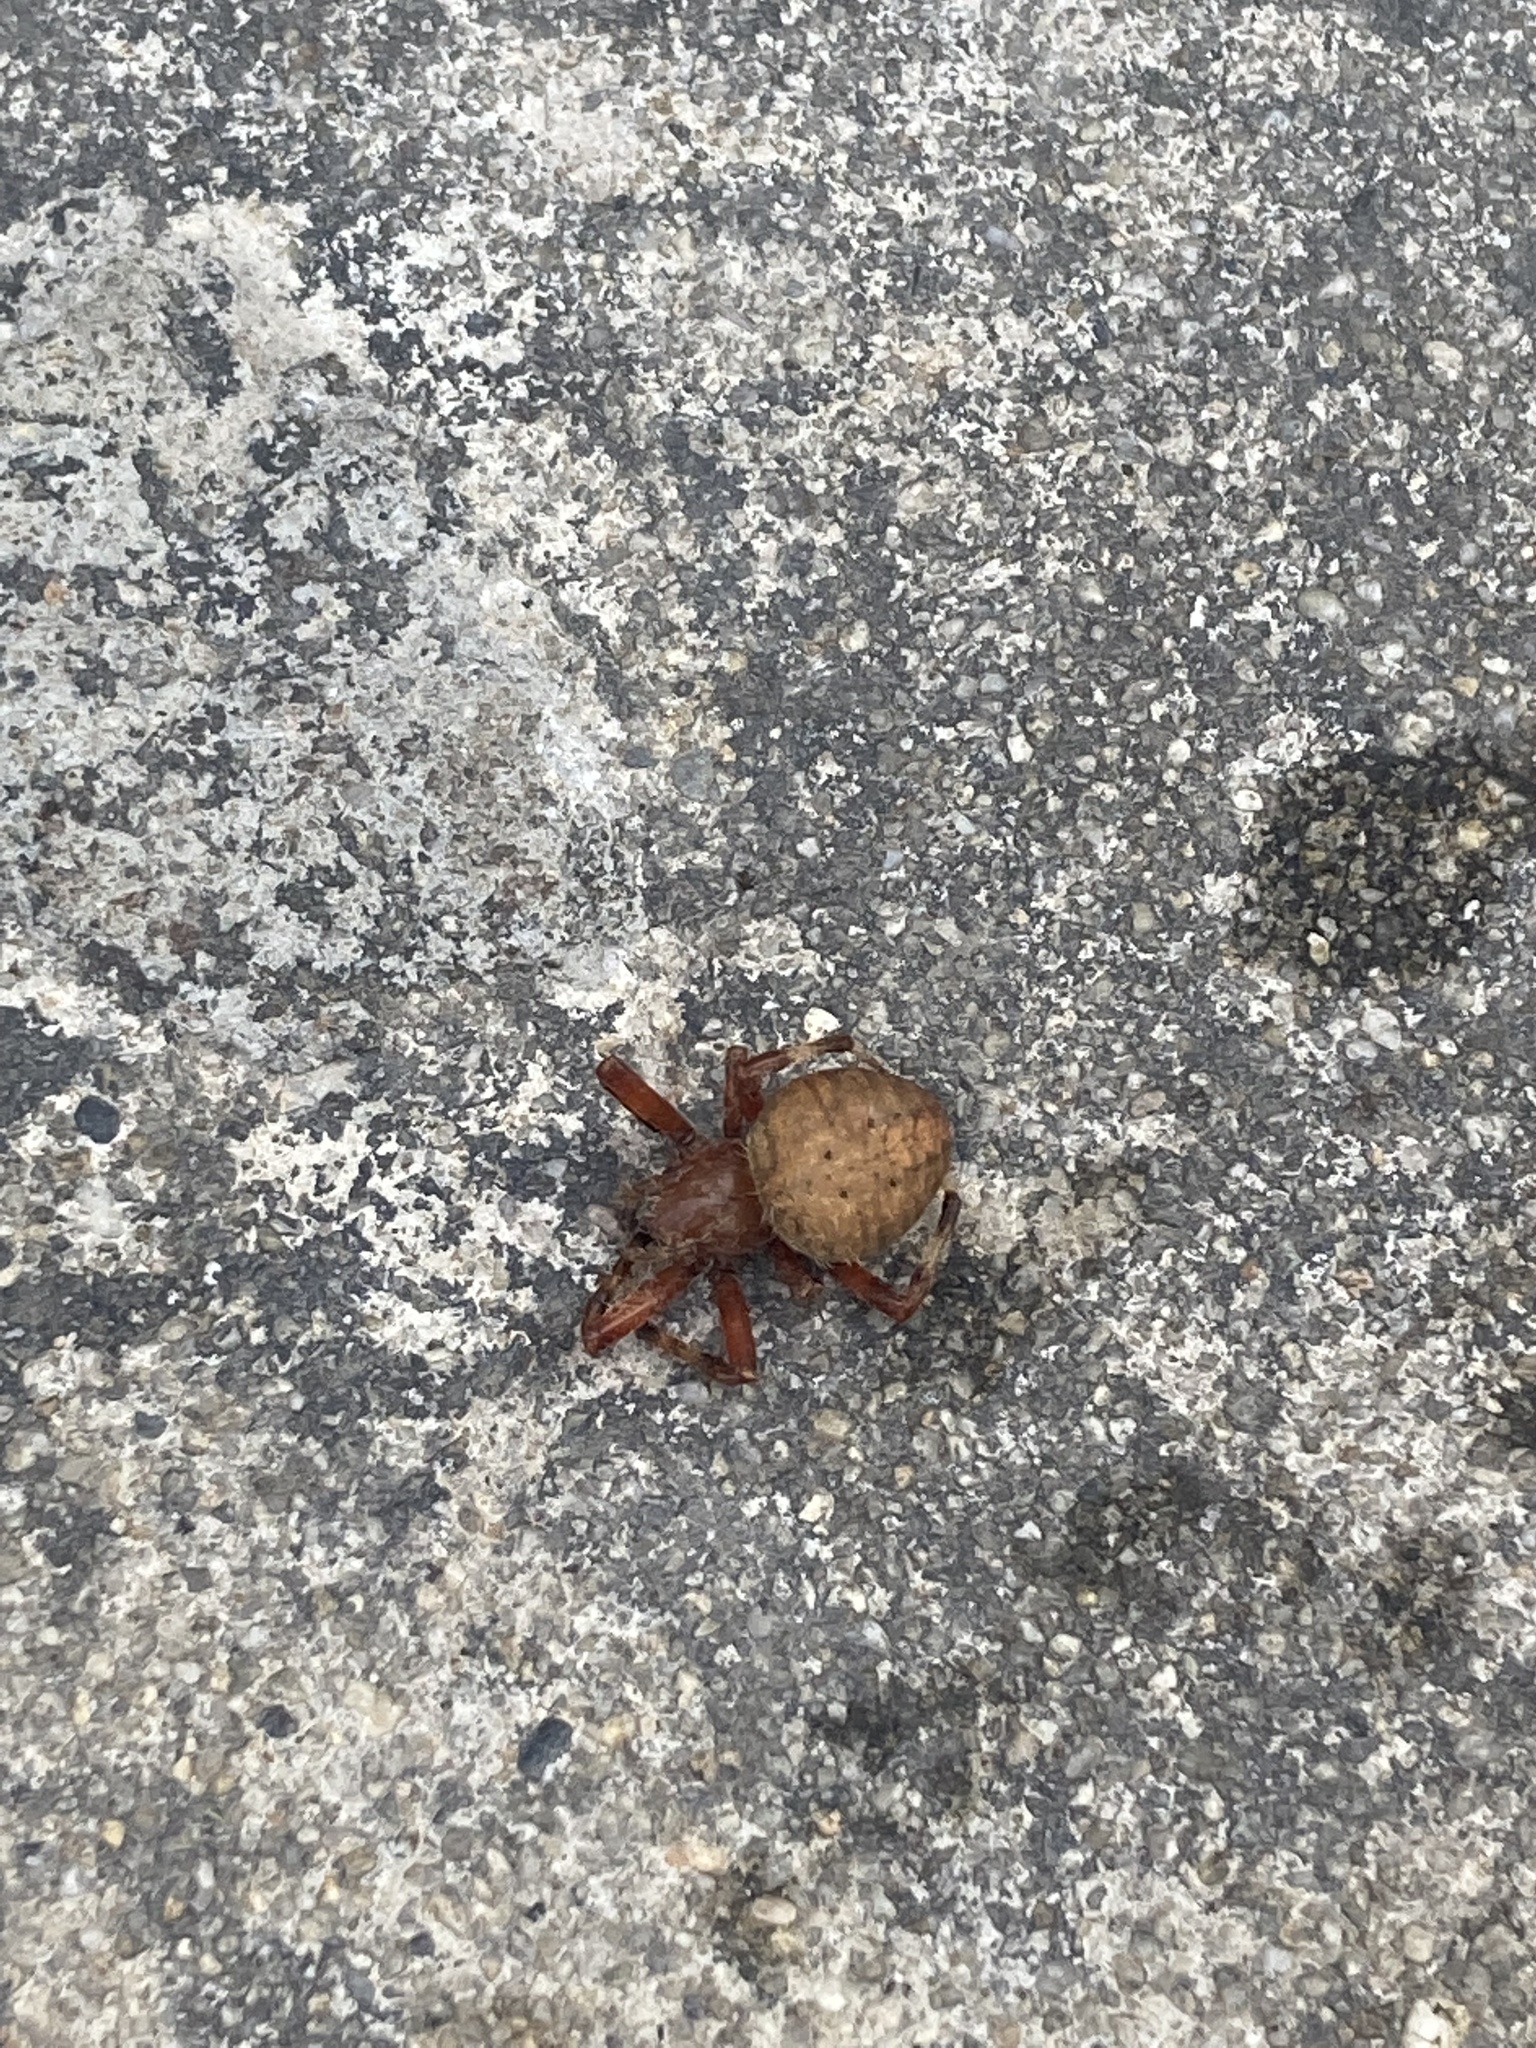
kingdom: Animalia
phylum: Arthropoda
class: Arachnida
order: Araneae
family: Araneidae
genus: Neoscona
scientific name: Neoscona crucifera
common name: Spotted orbweaver
